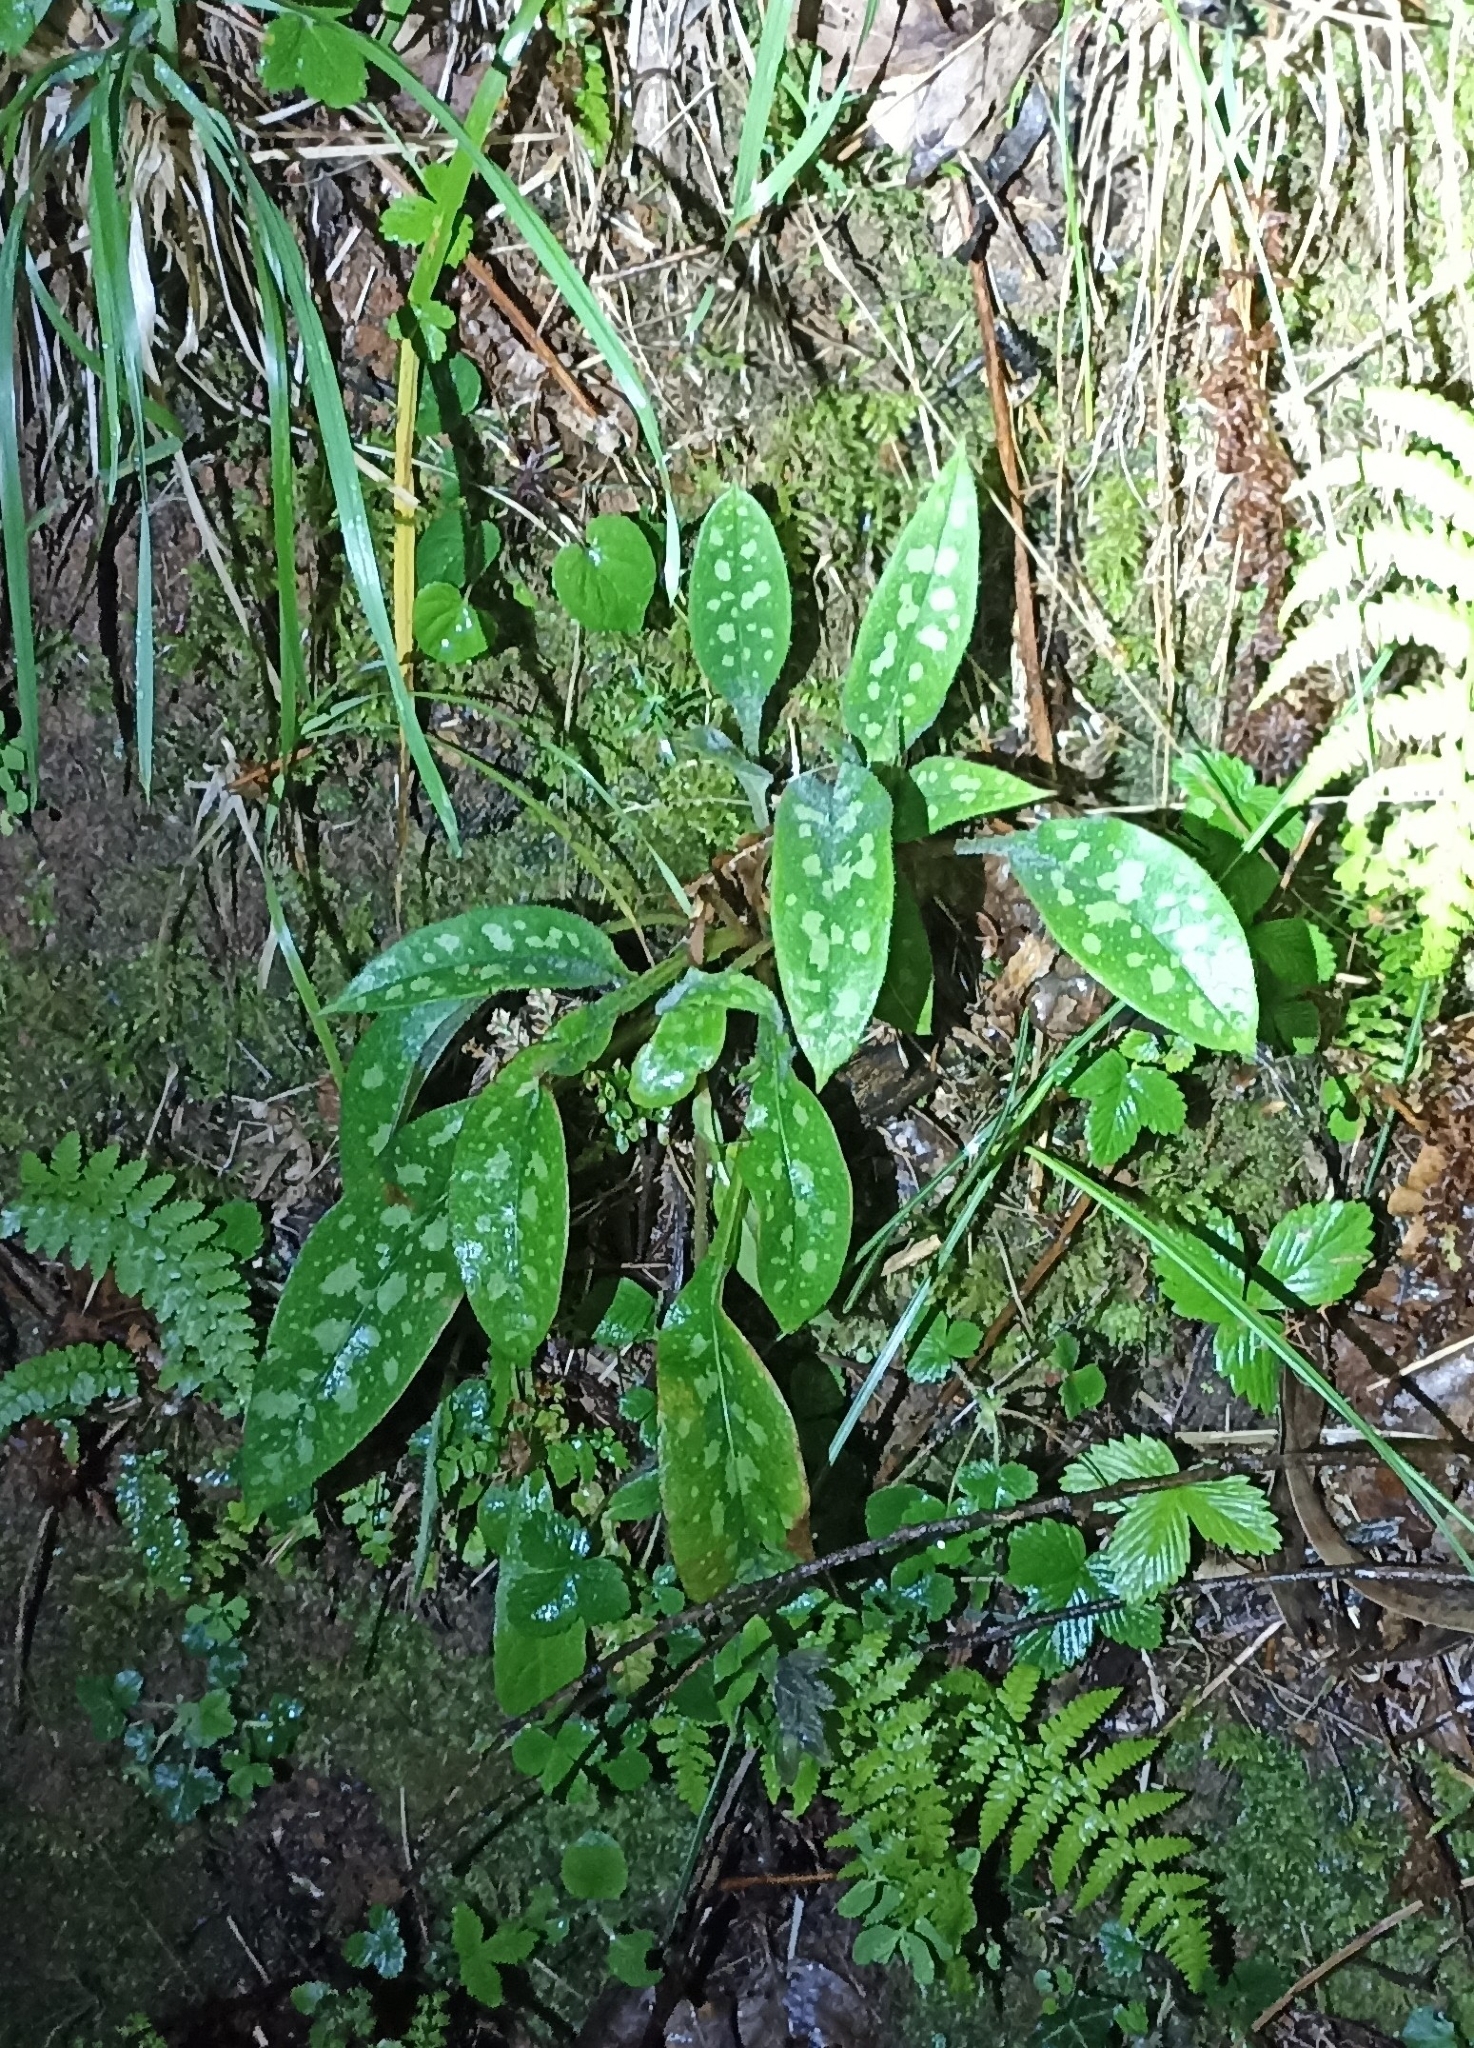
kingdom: Plantae
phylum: Tracheophyta
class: Magnoliopsida
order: Boraginales
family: Boraginaceae
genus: Pulmonaria
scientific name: Pulmonaria longifolia
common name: Narrow-leaved lungwort
